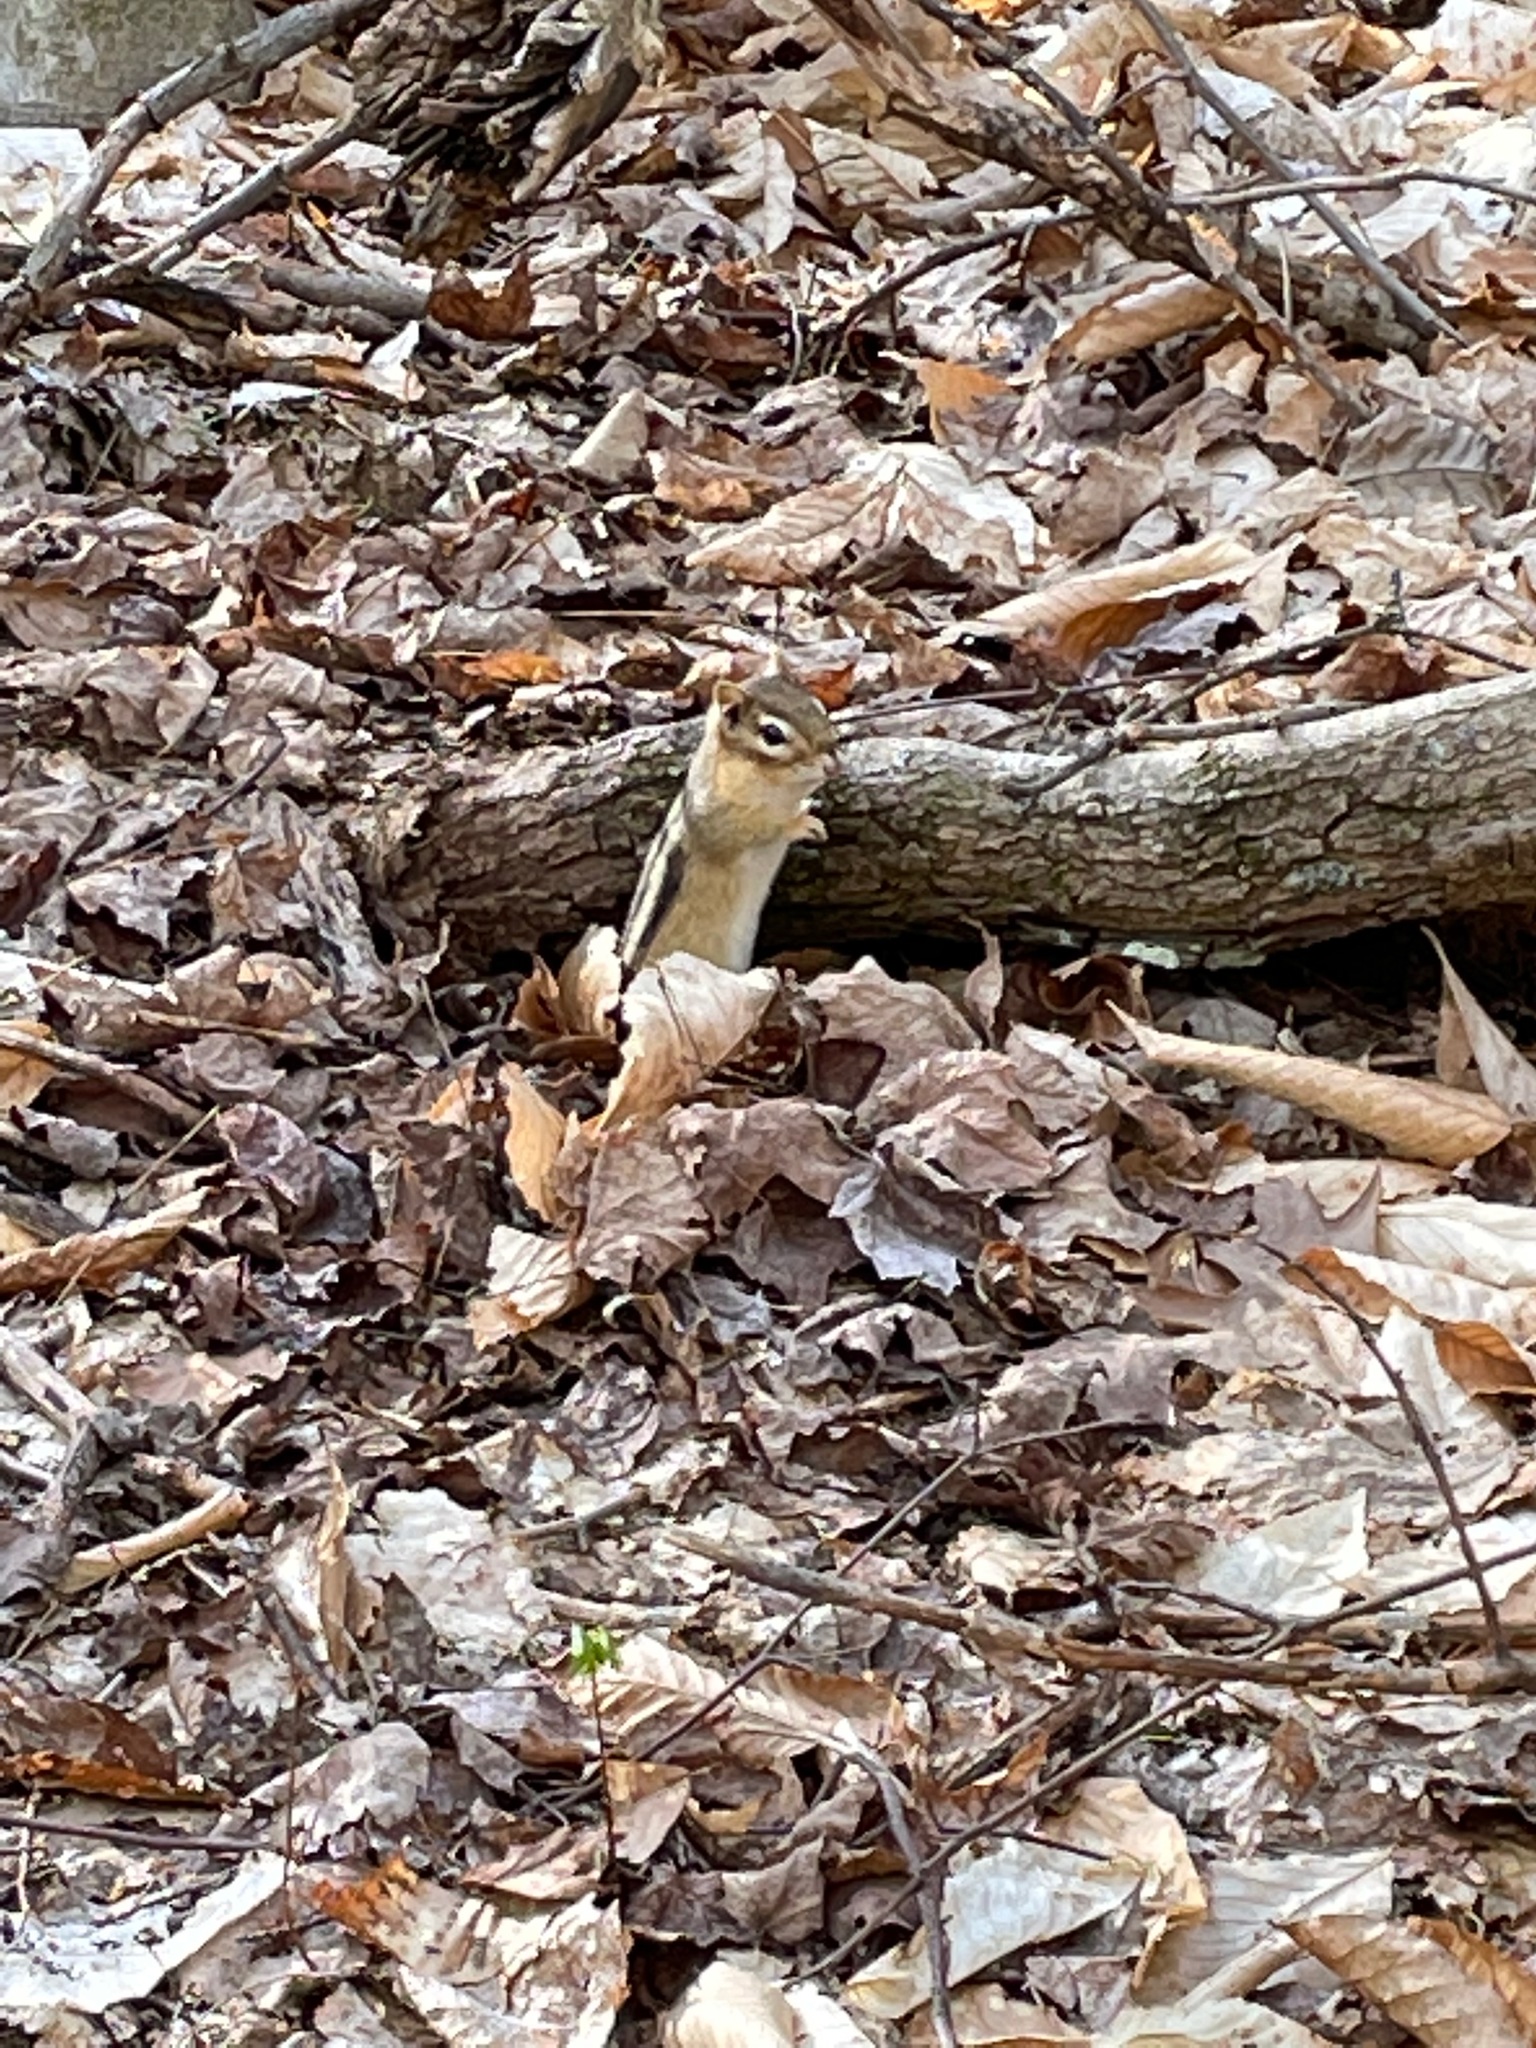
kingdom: Animalia
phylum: Chordata
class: Mammalia
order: Rodentia
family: Sciuridae
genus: Tamias
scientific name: Tamias striatus
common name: Eastern chipmunk
